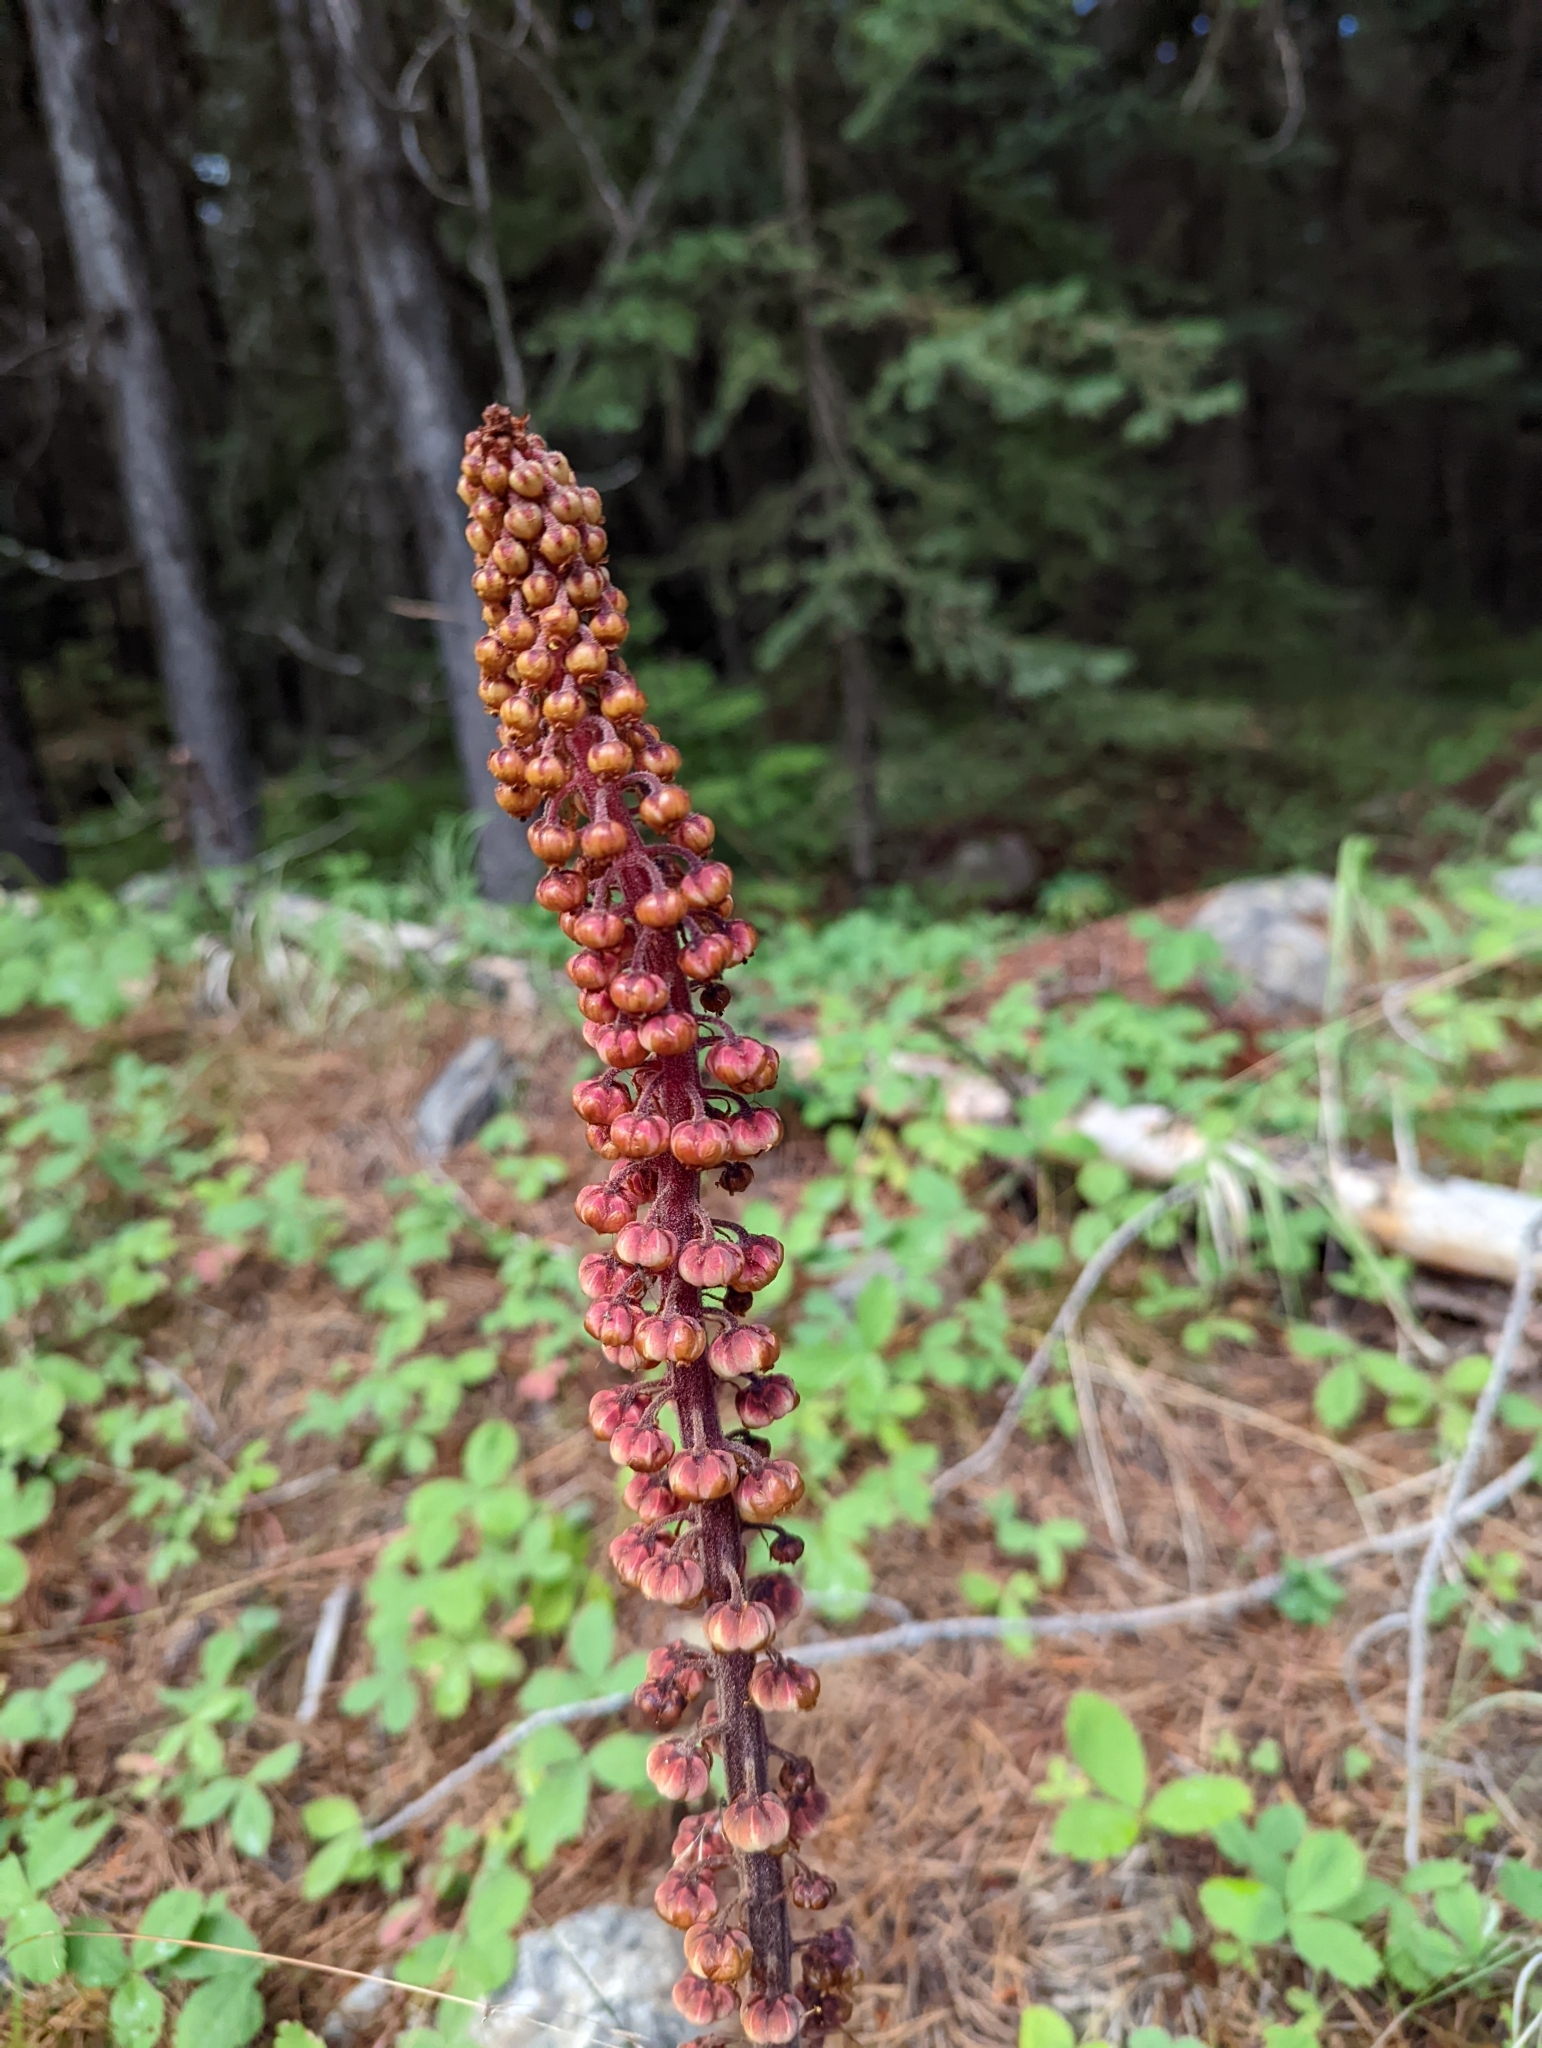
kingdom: Plantae
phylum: Tracheophyta
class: Magnoliopsida
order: Ericales
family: Ericaceae
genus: Pterospora
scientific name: Pterospora andromedea
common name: Giant bird's-nest
